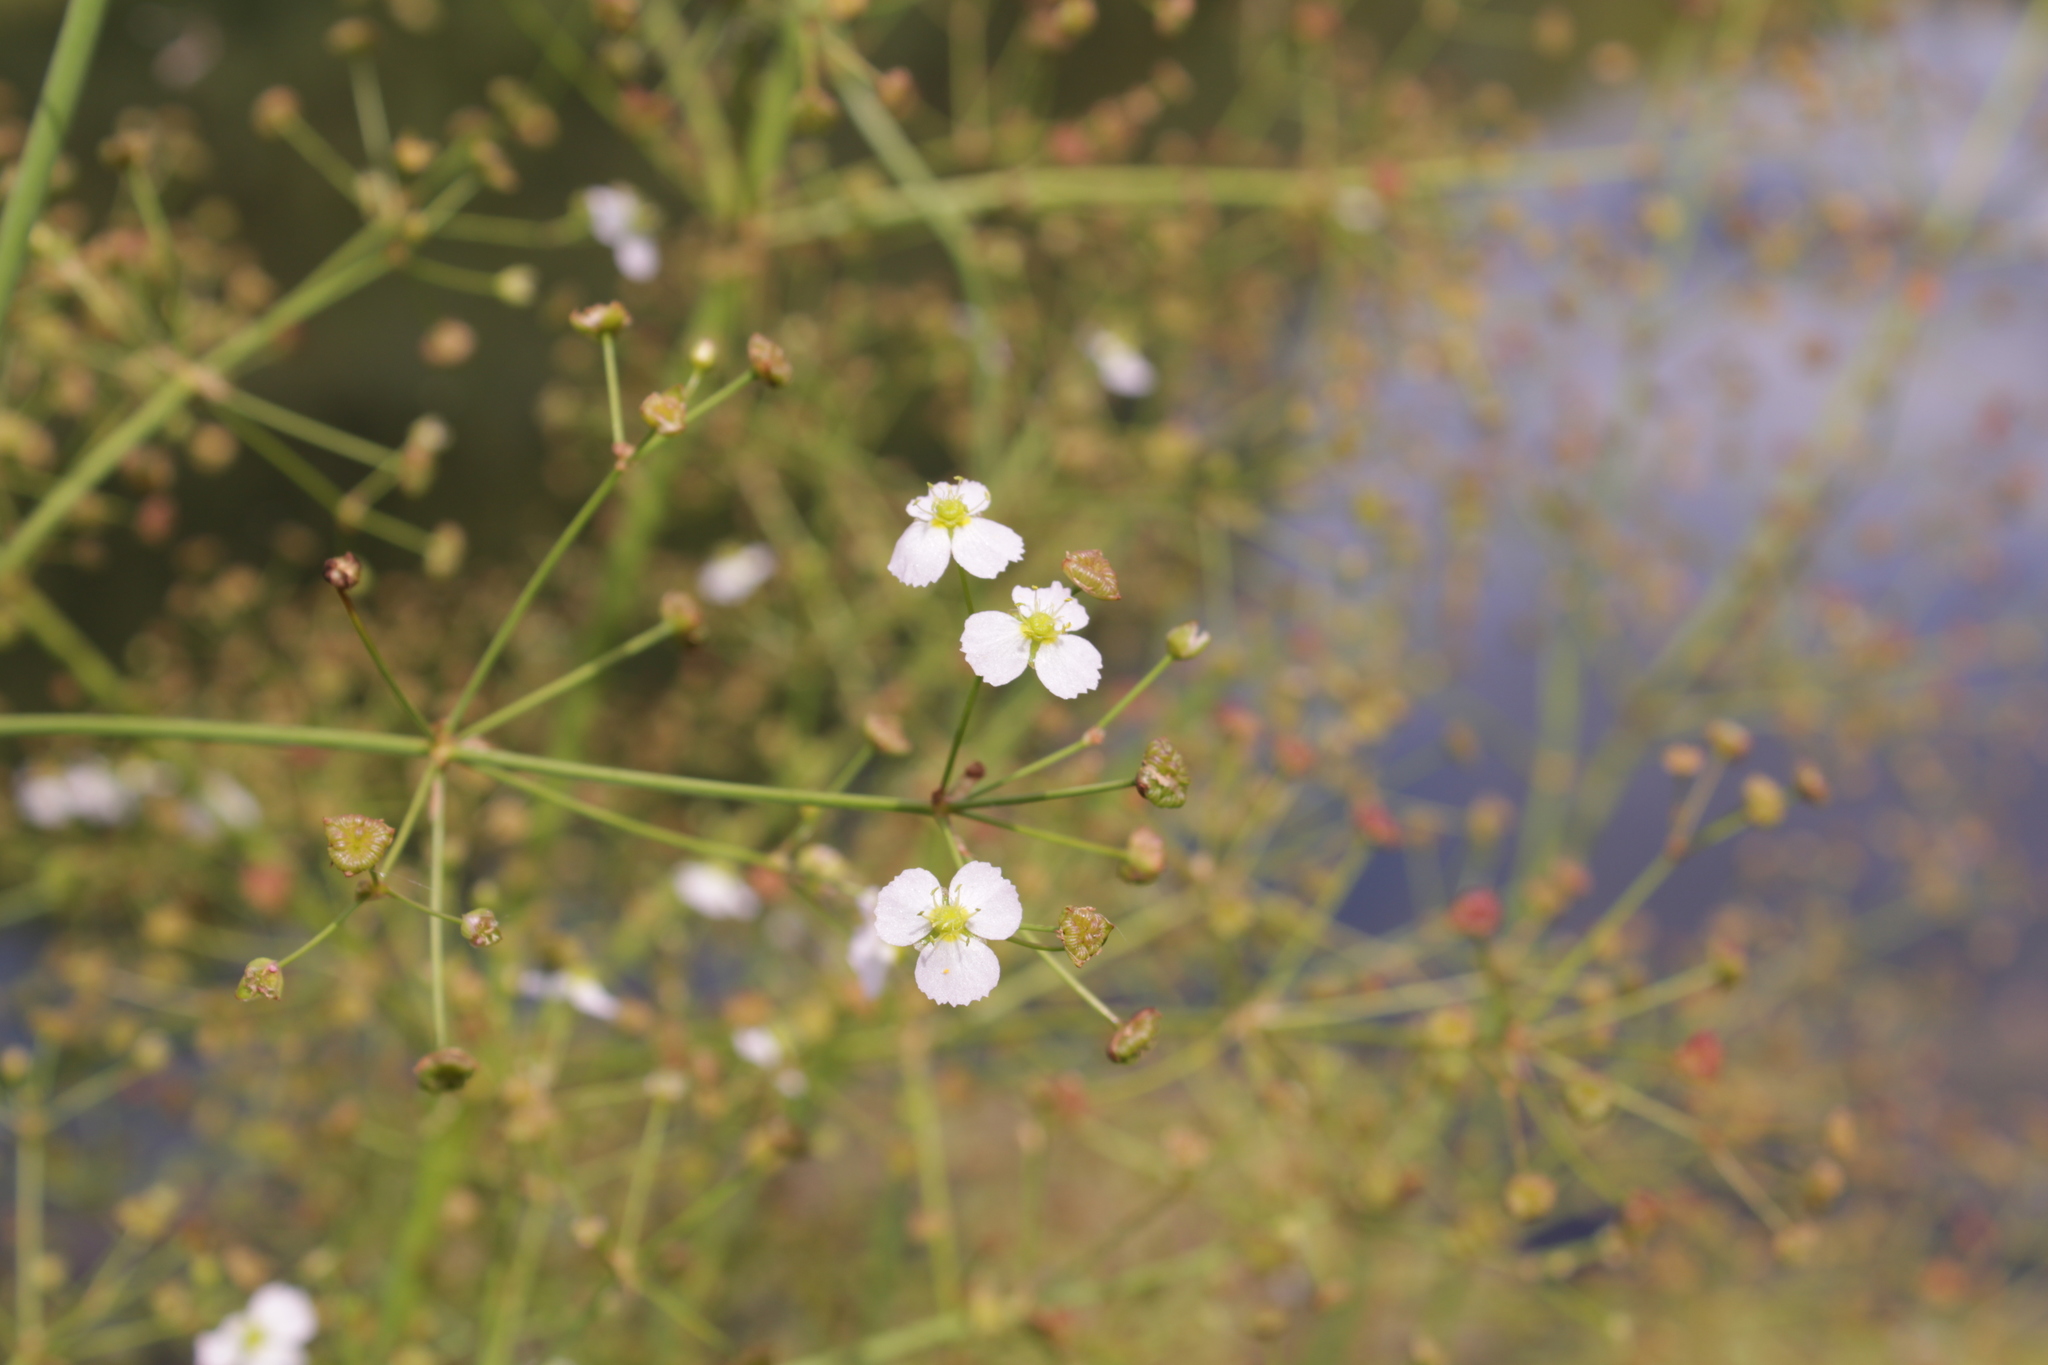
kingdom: Plantae
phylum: Tracheophyta
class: Liliopsida
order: Alismatales
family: Alismataceae
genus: Alisma
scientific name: Alisma plantago-aquatica
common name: Water-plantain
